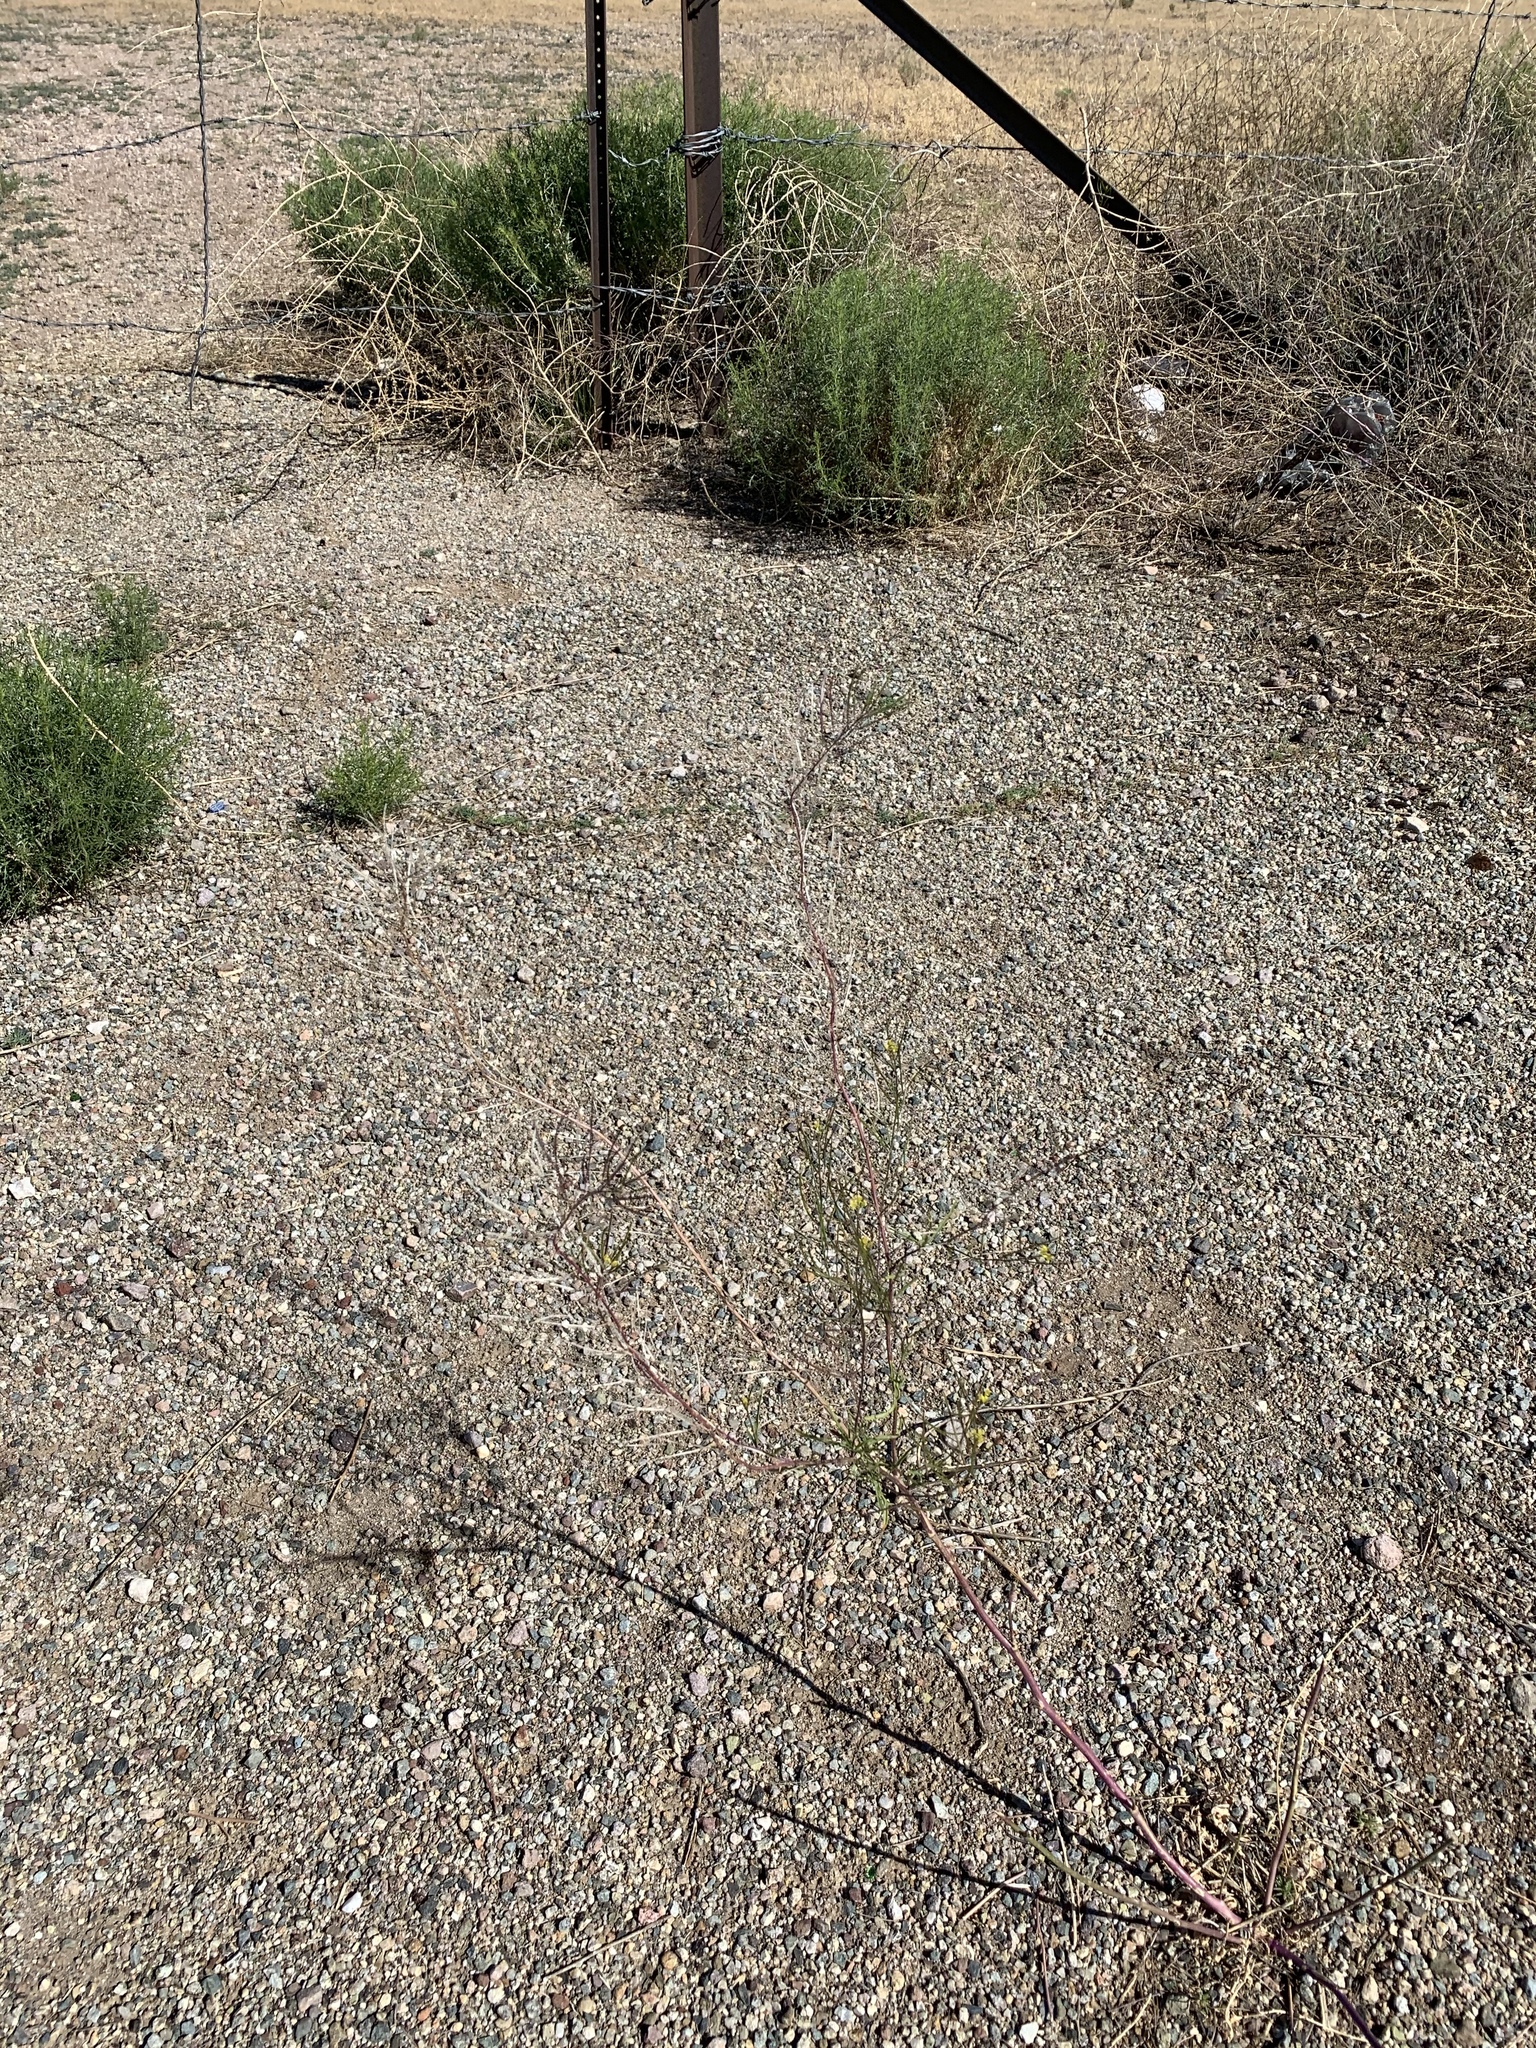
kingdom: Plantae
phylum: Tracheophyta
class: Magnoliopsida
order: Brassicales
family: Brassicaceae
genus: Sisymbrium
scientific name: Sisymbrium irio
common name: London rocket
